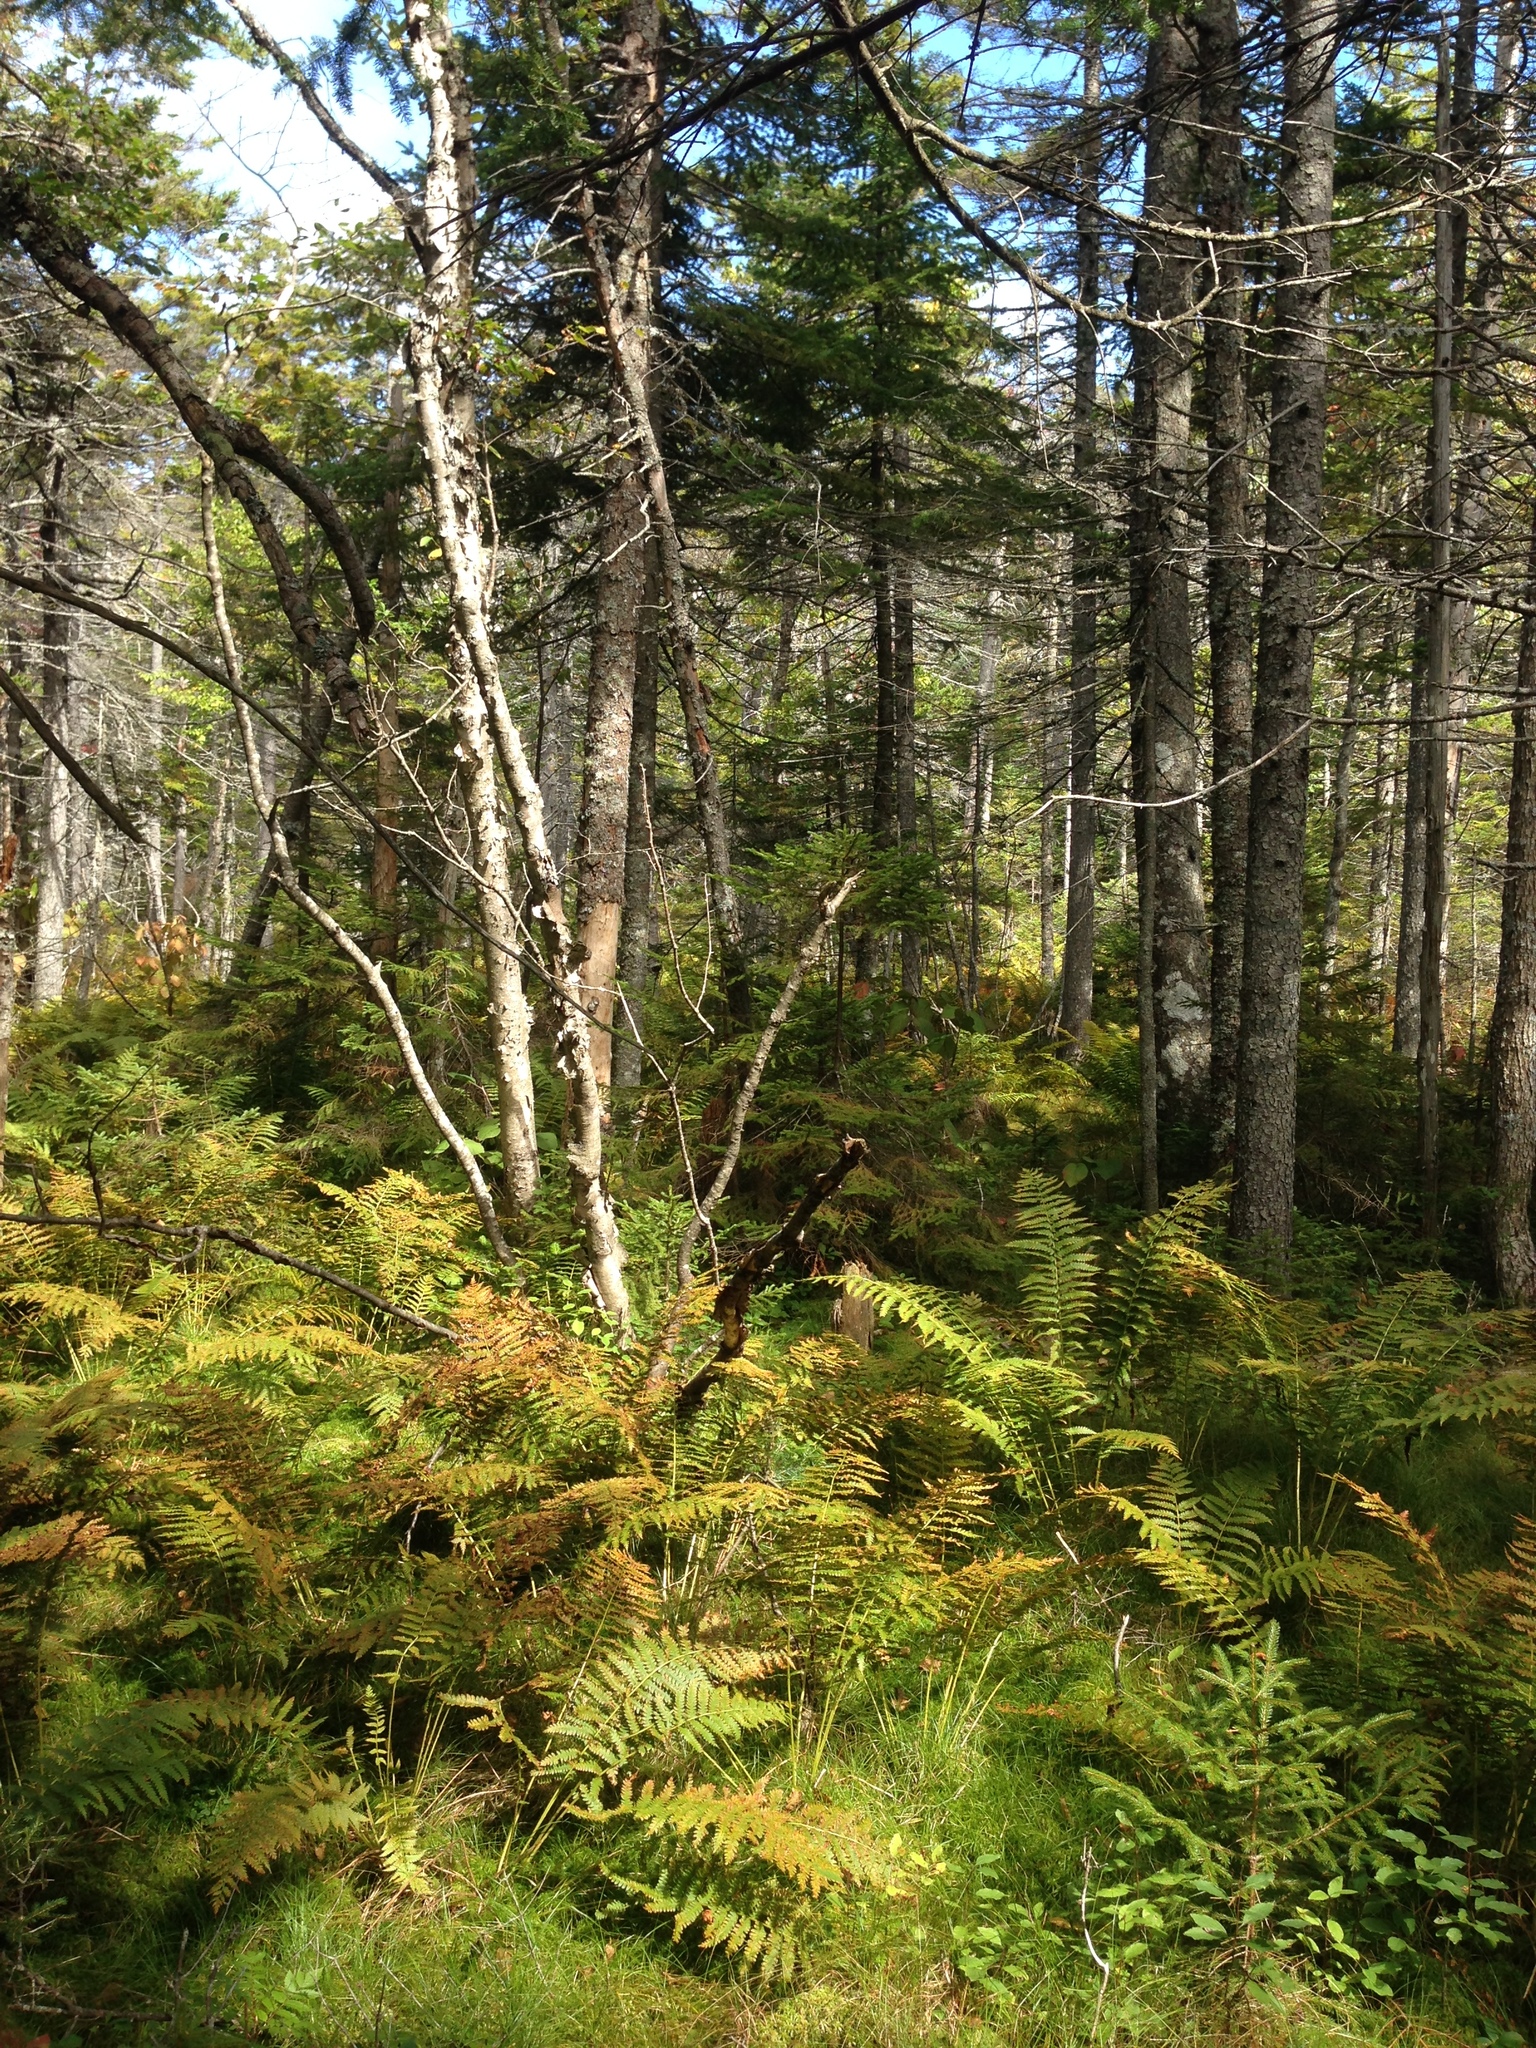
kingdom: Plantae
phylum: Tracheophyta
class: Polypodiopsida
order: Osmundales
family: Osmundaceae
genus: Osmundastrum
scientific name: Osmundastrum cinnamomeum
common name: Cinnamon fern
